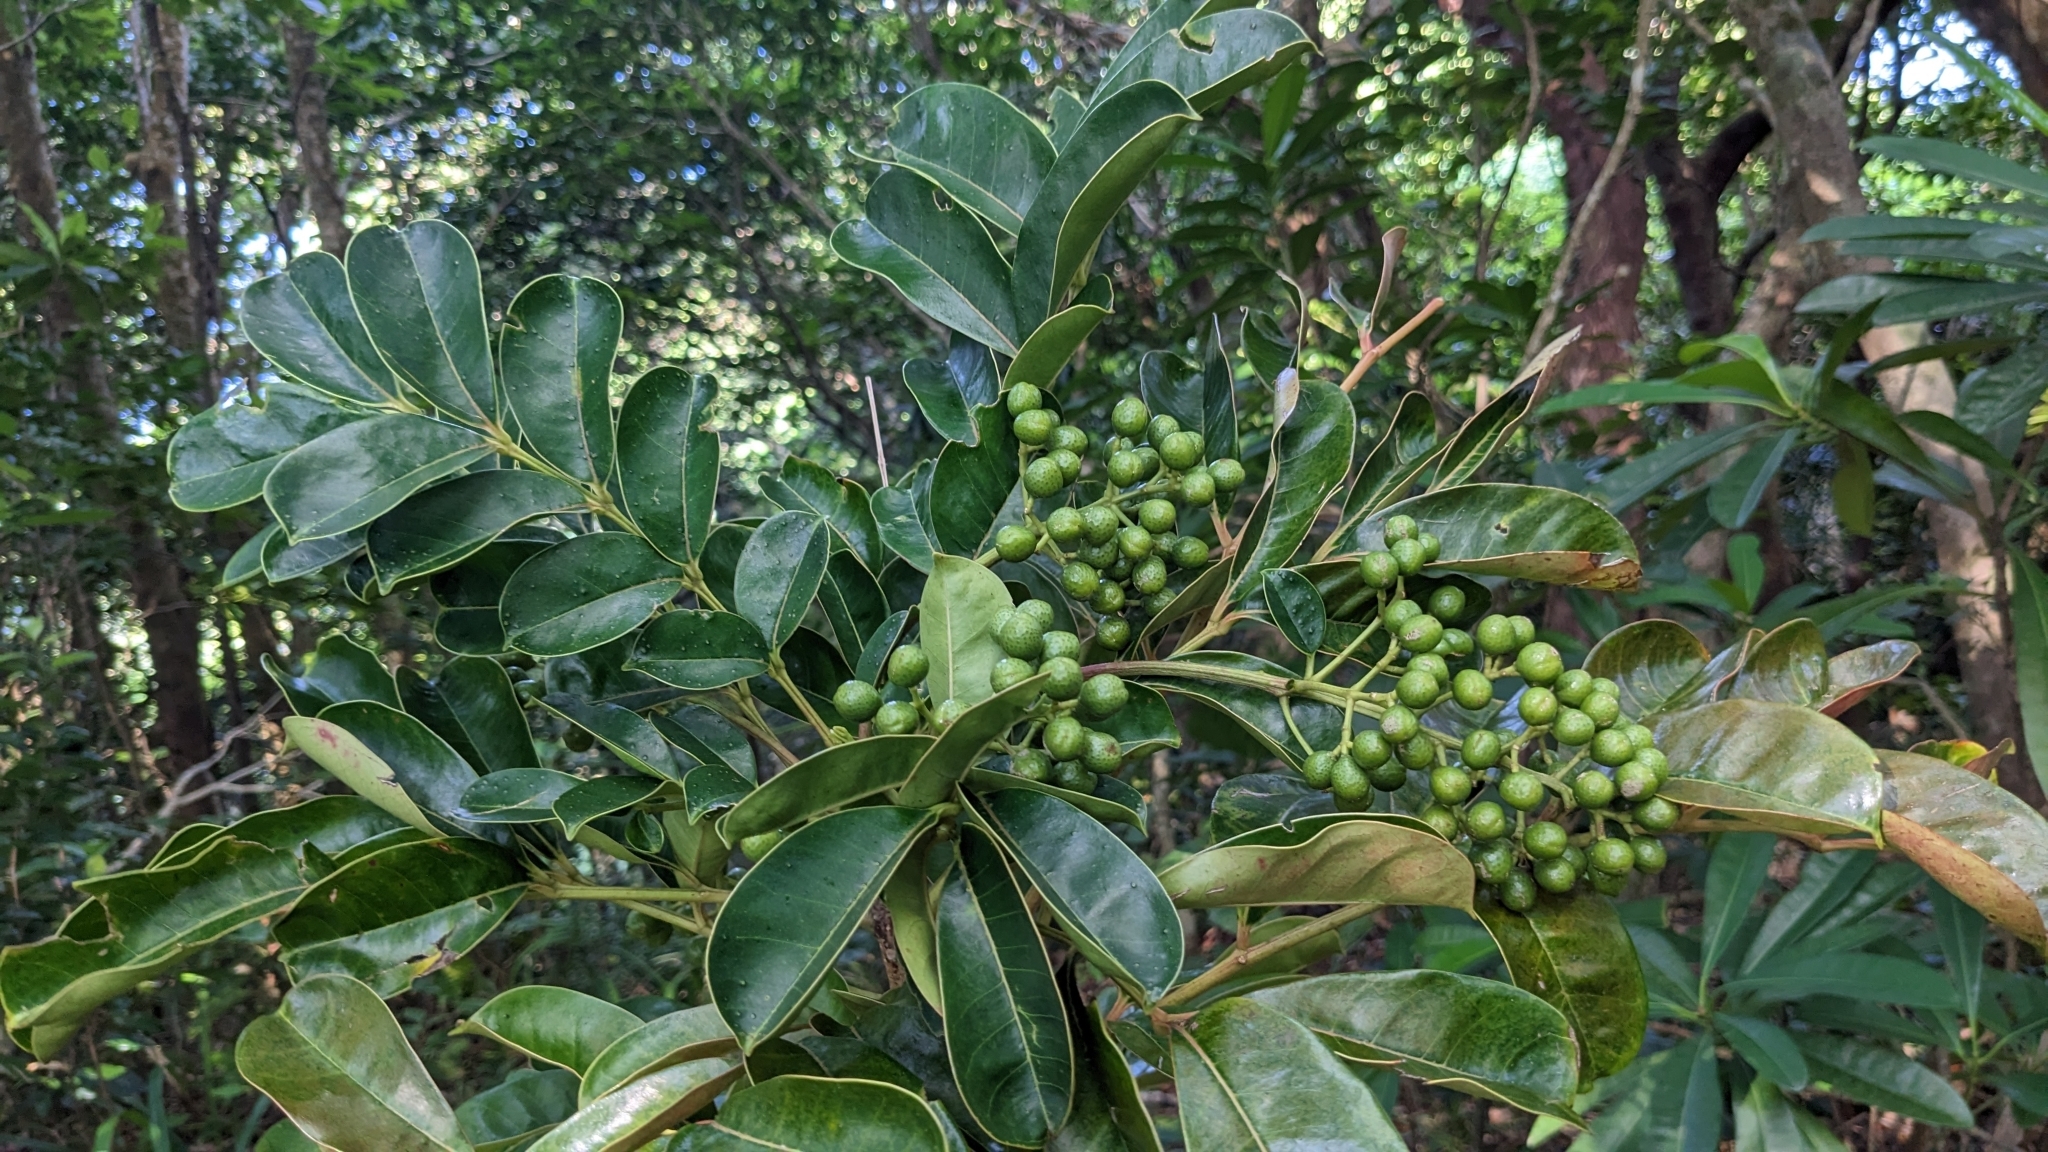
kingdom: Plantae
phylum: Tracheophyta
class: Magnoliopsida
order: Sapindales
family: Rutaceae
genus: Zanthoxylum
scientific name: Zanthoxylum integrifoliolum
